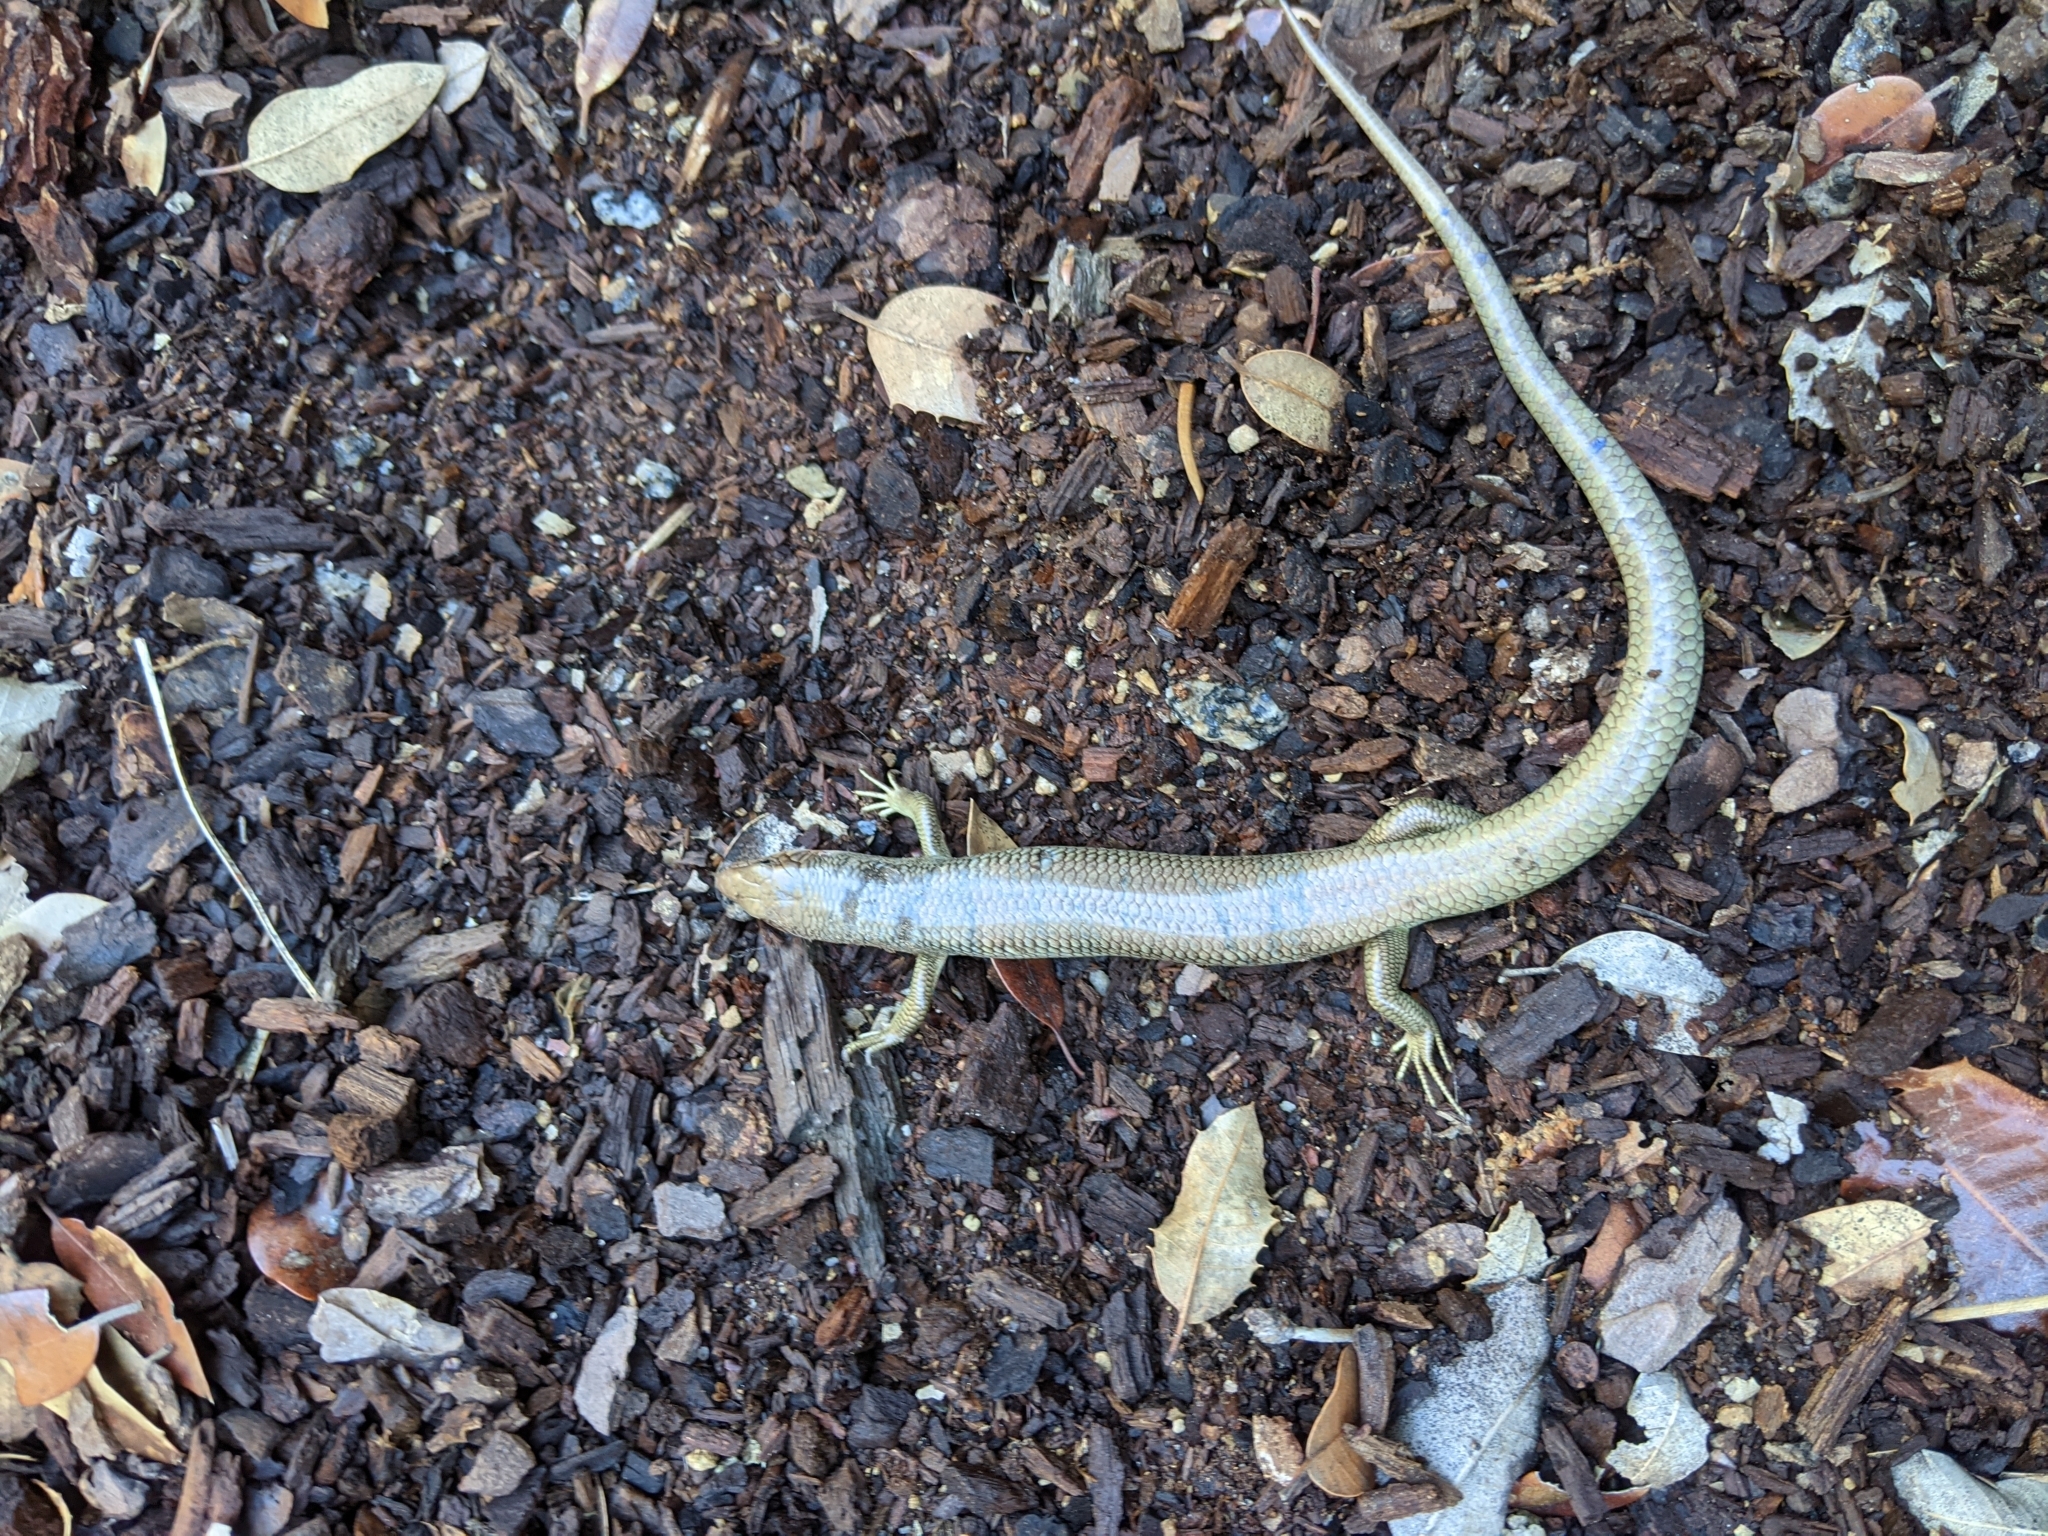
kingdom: Animalia
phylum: Chordata
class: Squamata
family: Scincidae
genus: Plestiodon
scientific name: Plestiodon gilberti
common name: Gilbert's skink
